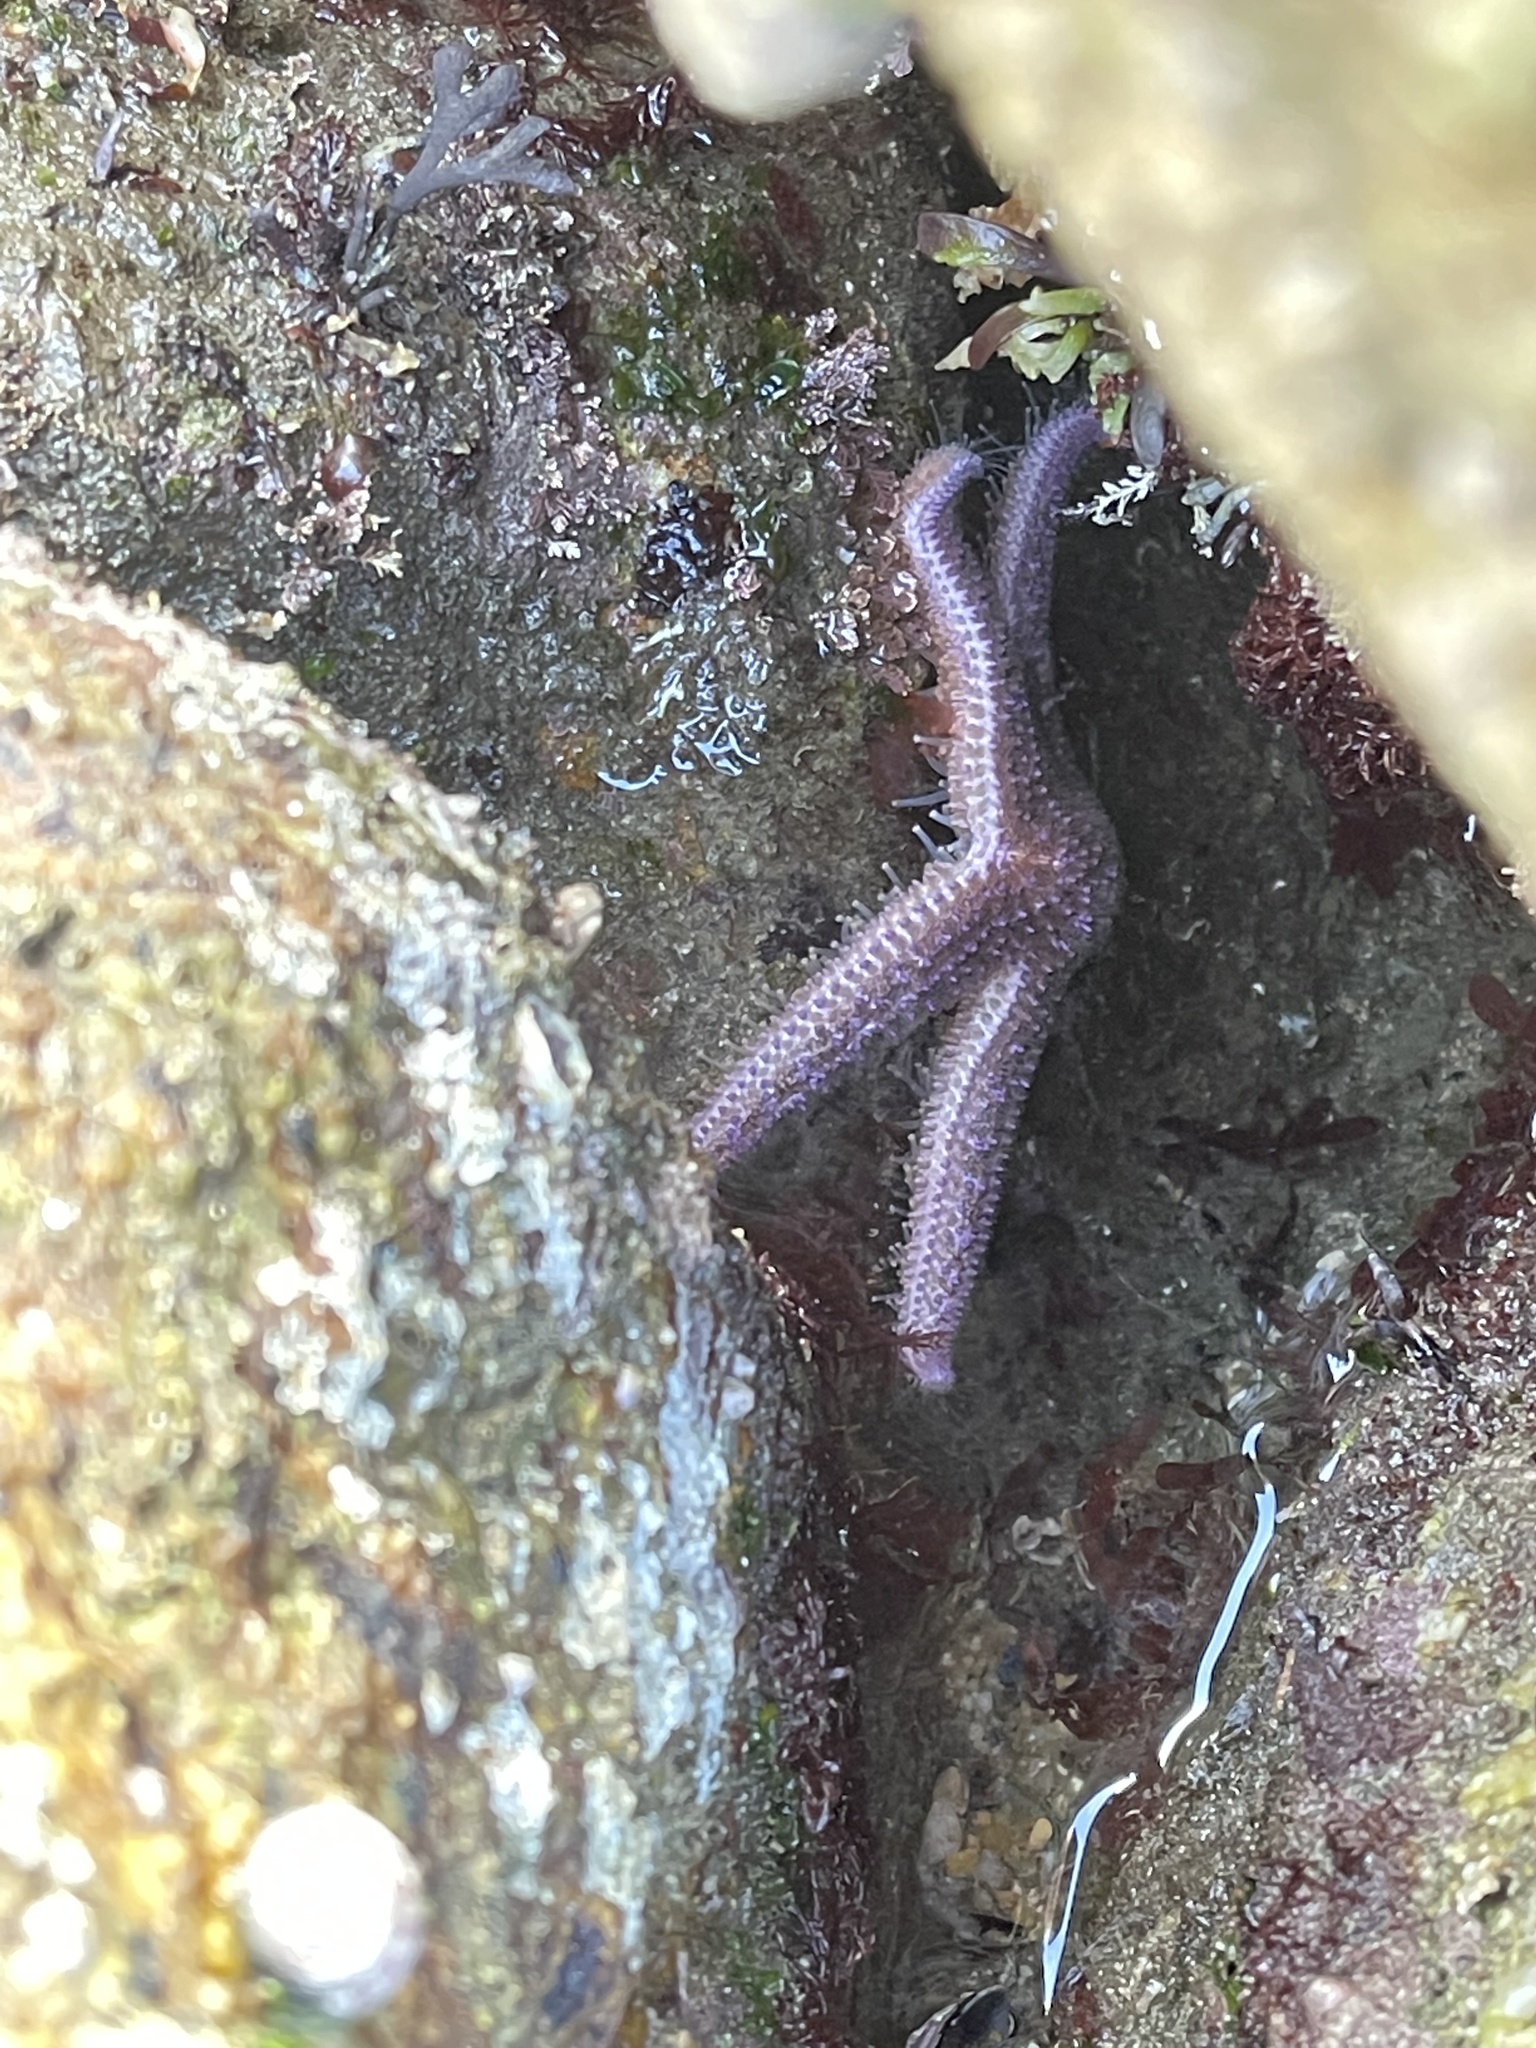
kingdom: Animalia
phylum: Echinodermata
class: Asteroidea
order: Forcipulatida
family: Asteriidae
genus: Asterias
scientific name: Asterias rubens
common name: Common starfish
